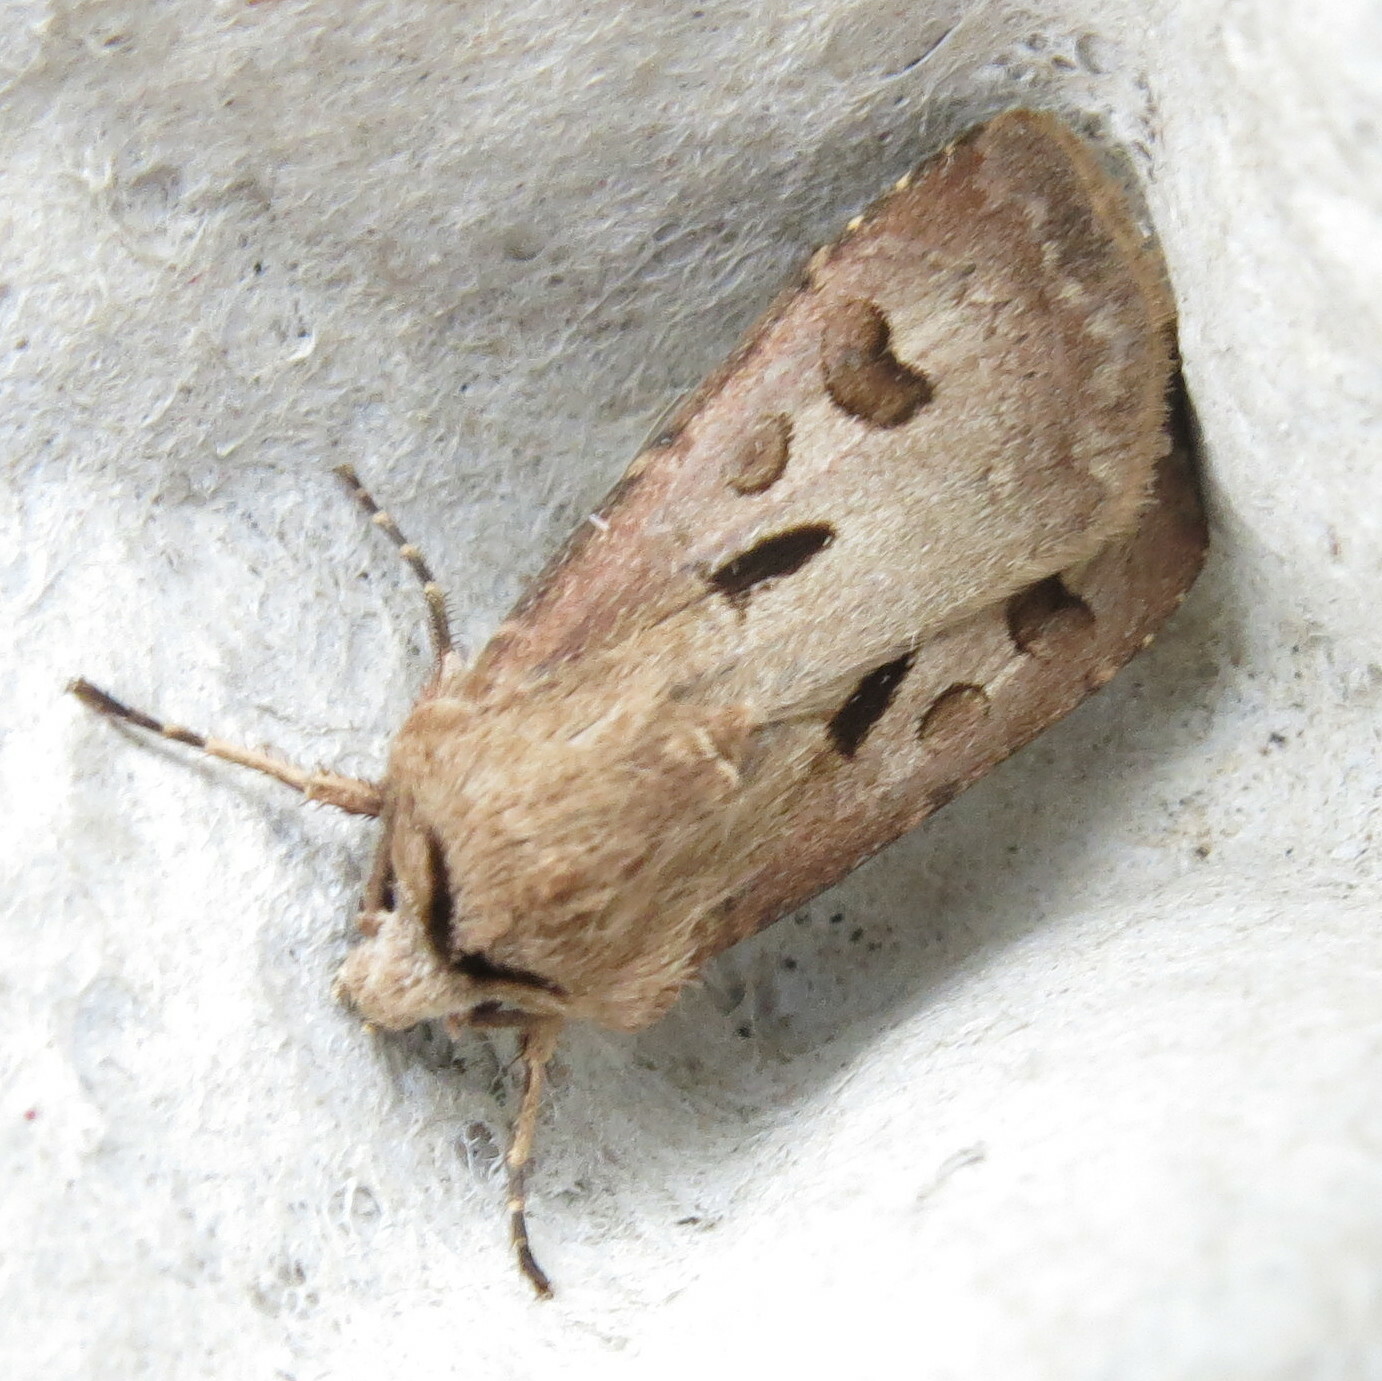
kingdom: Animalia
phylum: Arthropoda
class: Insecta
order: Lepidoptera
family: Noctuidae
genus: Agrotis
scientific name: Agrotis exclamationis
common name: Heart and dart
